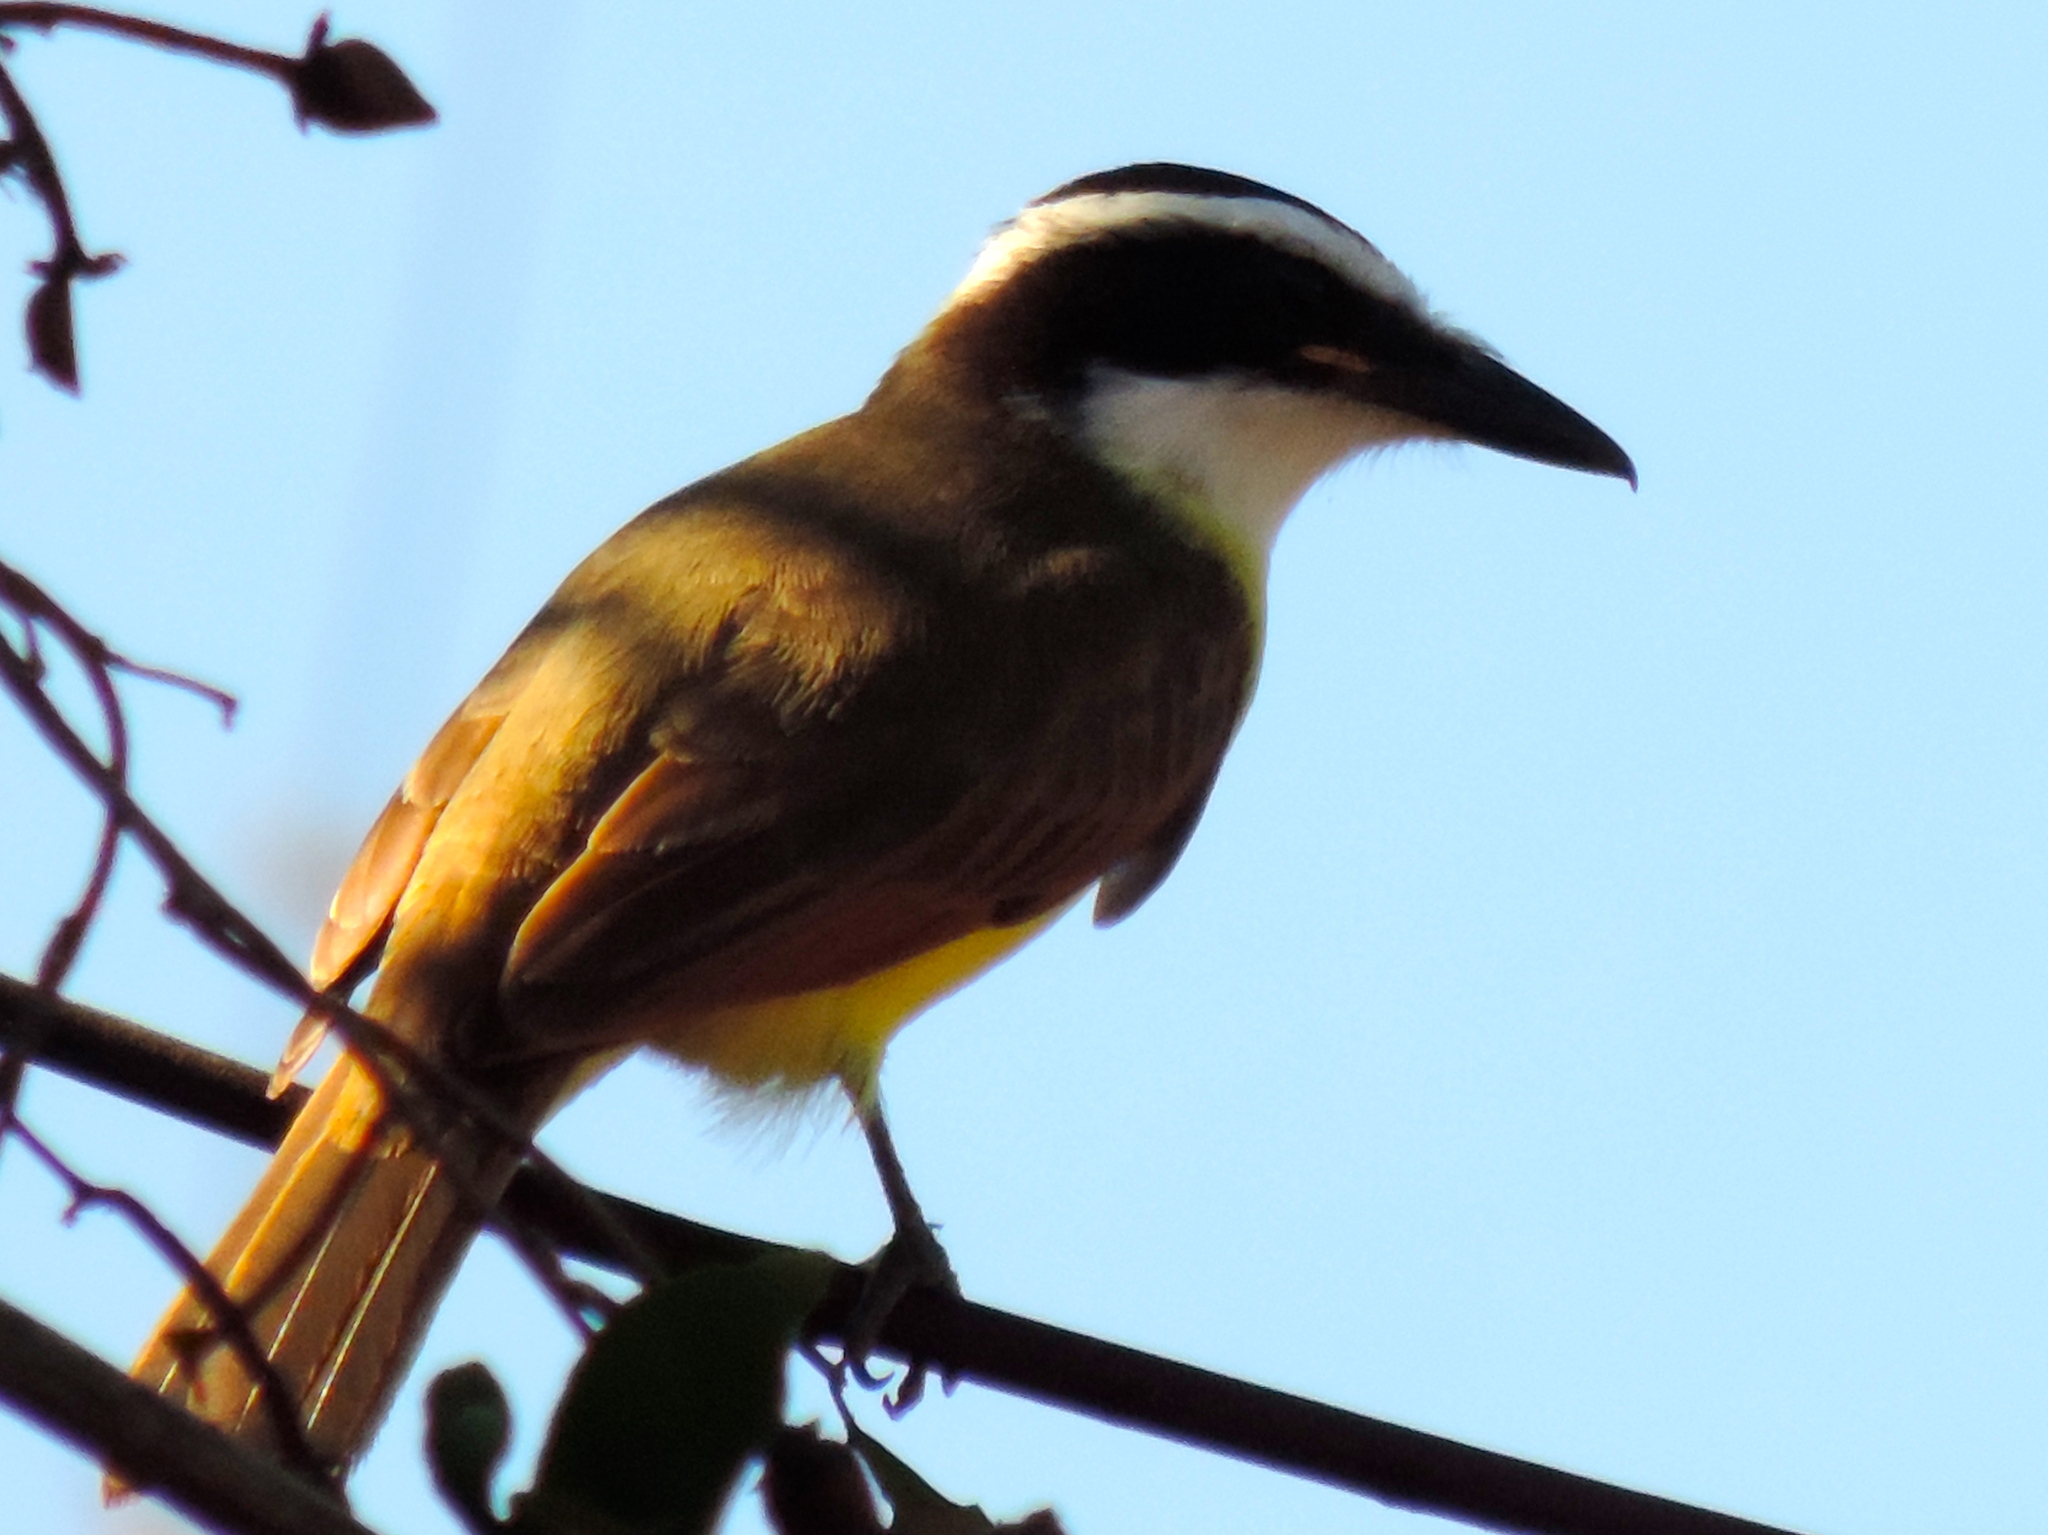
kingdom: Animalia
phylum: Chordata
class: Aves
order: Passeriformes
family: Tyrannidae
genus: Pitangus
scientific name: Pitangus sulphuratus
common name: Great kiskadee
